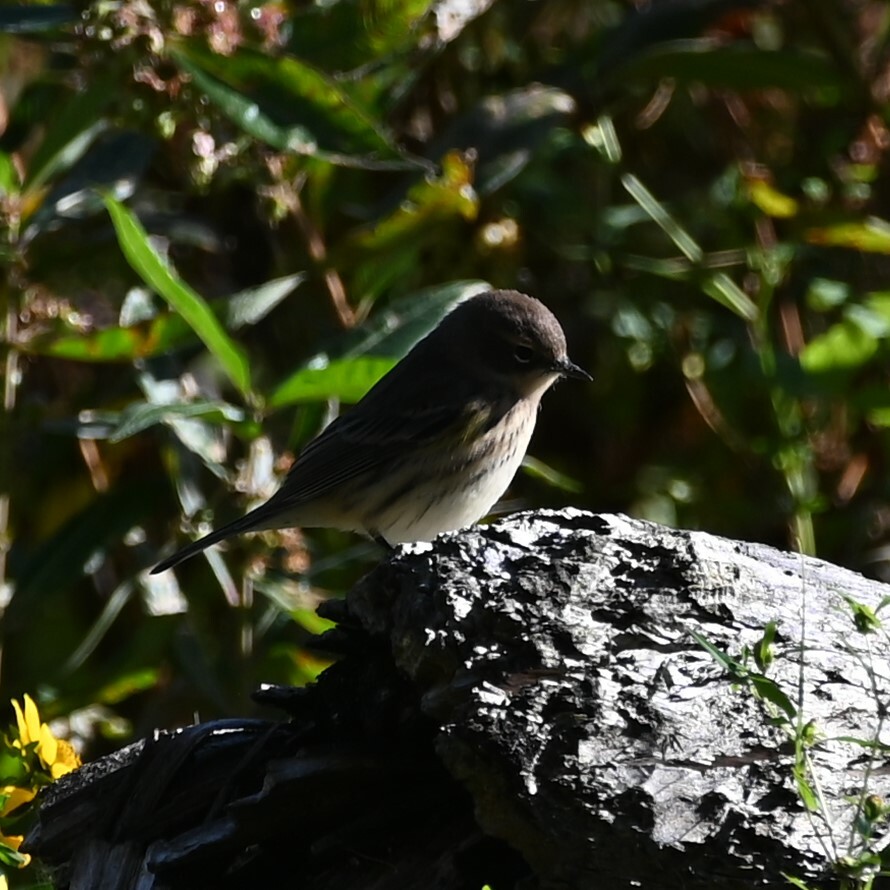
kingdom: Animalia
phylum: Chordata
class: Aves
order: Passeriformes
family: Parulidae
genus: Setophaga
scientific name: Setophaga coronata
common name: Myrtle warbler
